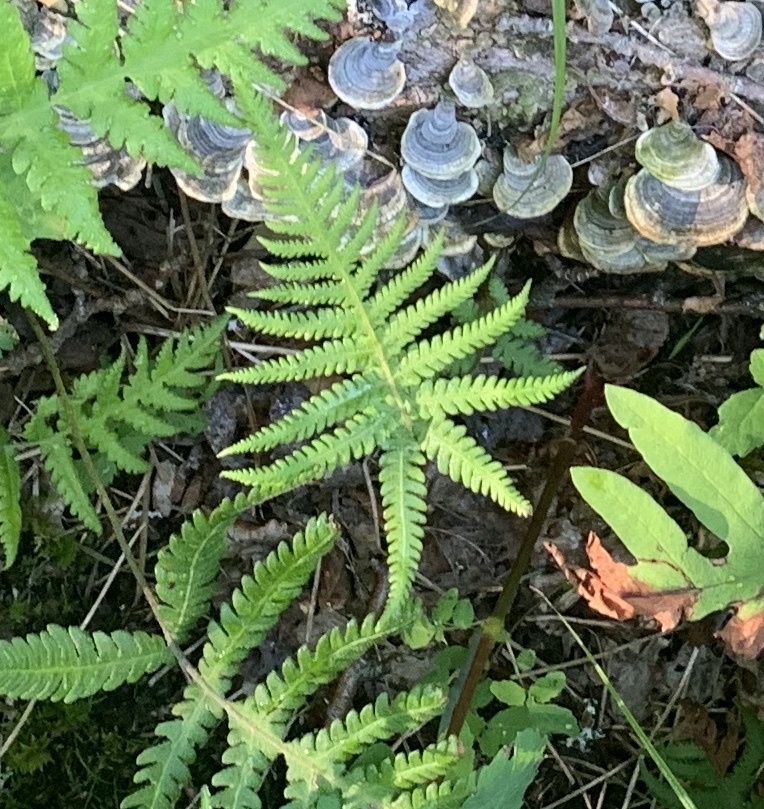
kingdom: Plantae
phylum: Tracheophyta
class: Polypodiopsida
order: Polypodiales
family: Thelypteridaceae
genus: Phegopteris
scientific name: Phegopteris connectilis
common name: Beech fern
